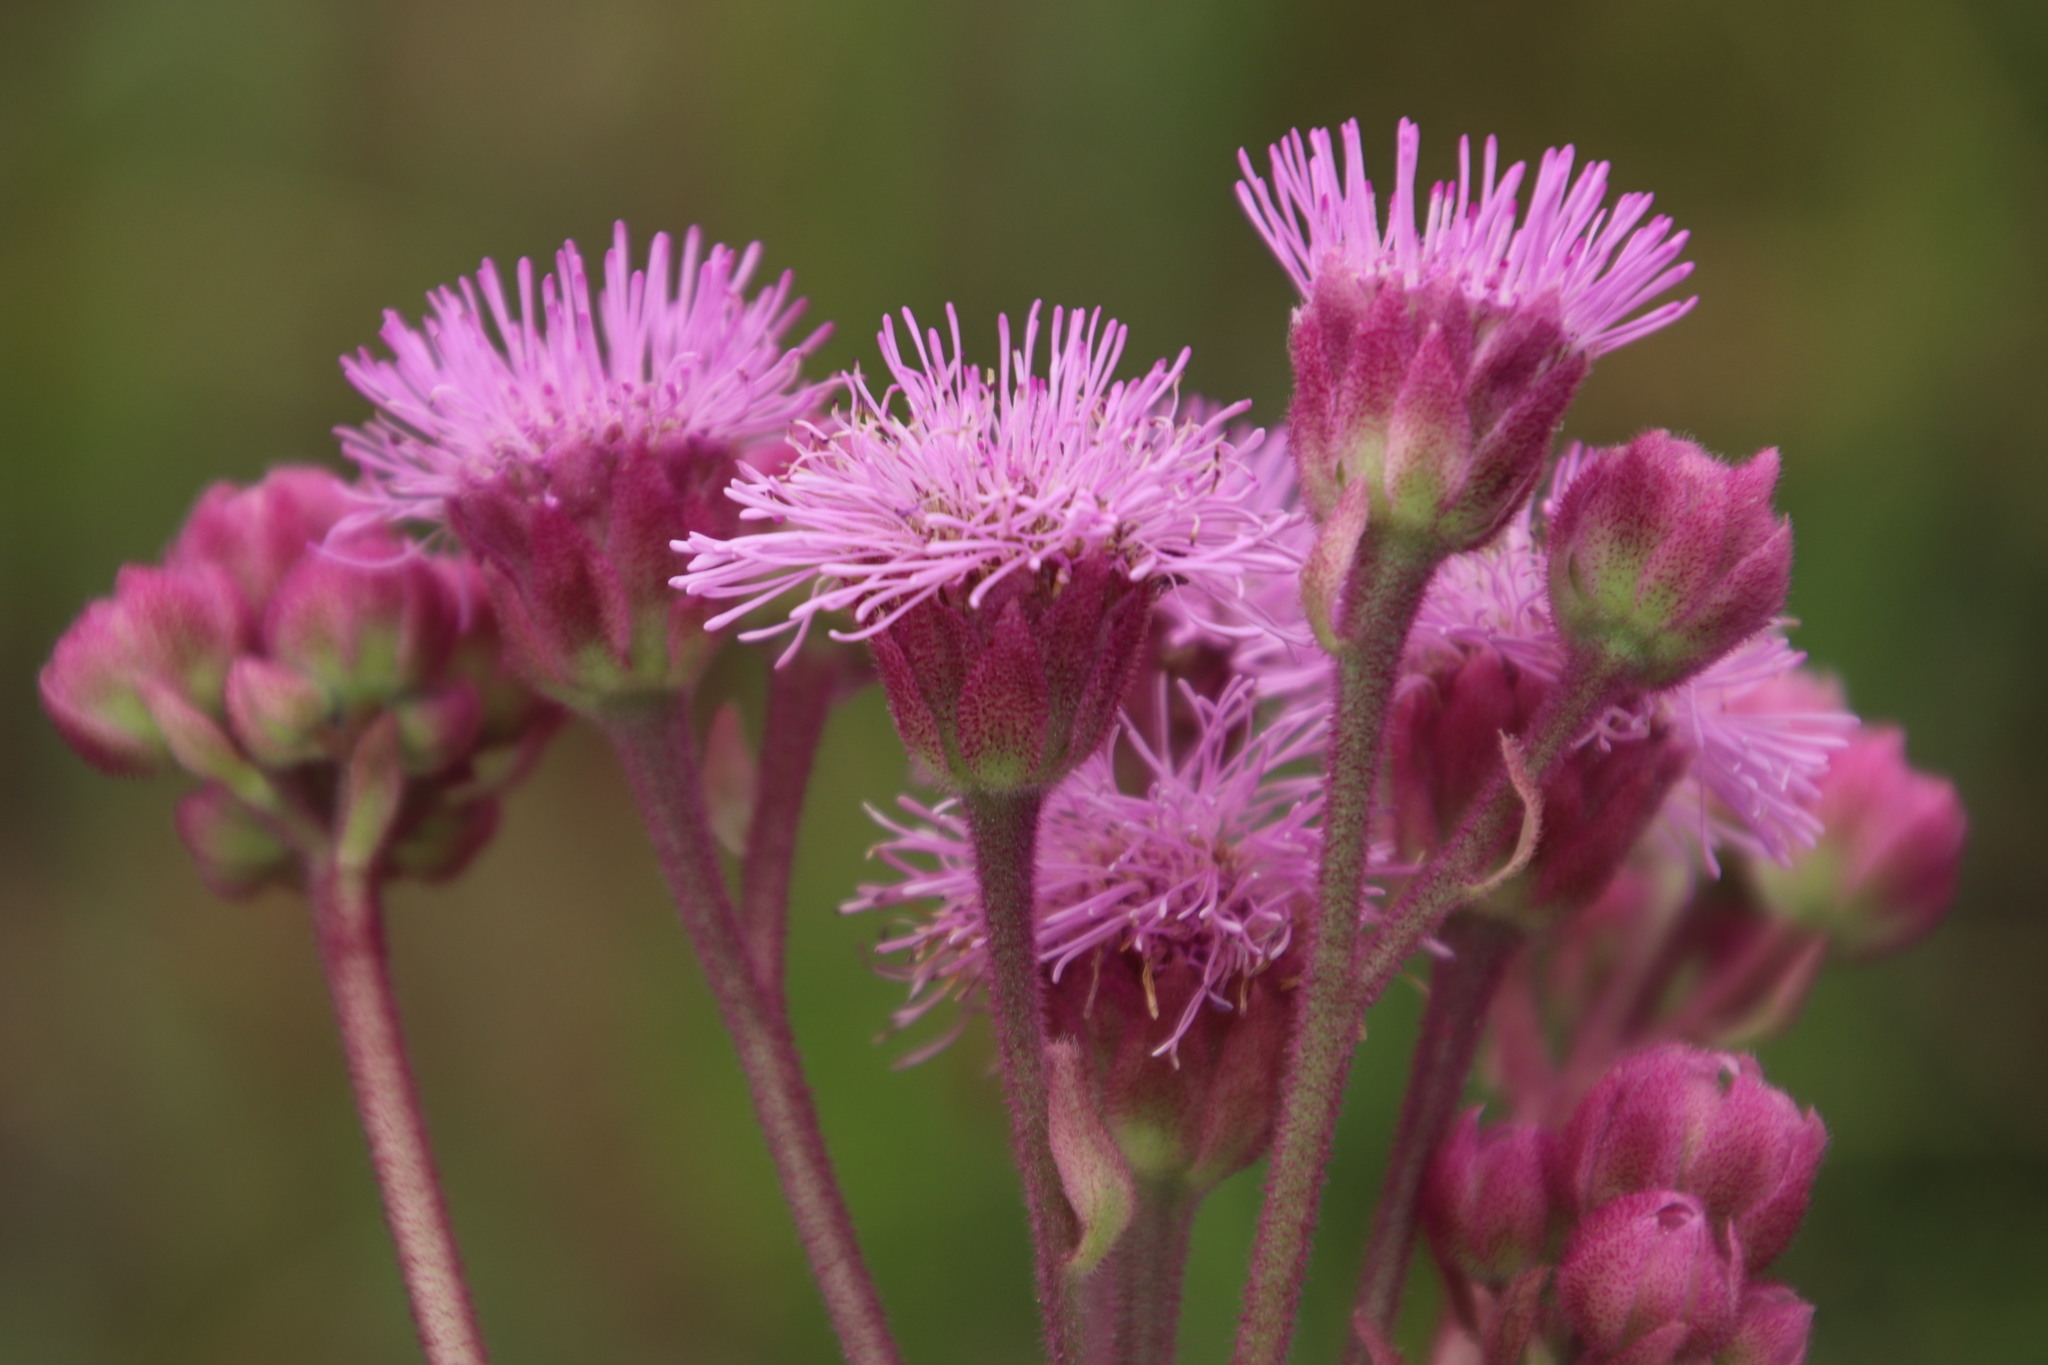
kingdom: Plantae
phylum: Tracheophyta
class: Magnoliopsida
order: Asterales
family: Asteraceae
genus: Campuloclinium
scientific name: Campuloclinium macrocephalum
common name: Pompomweed
